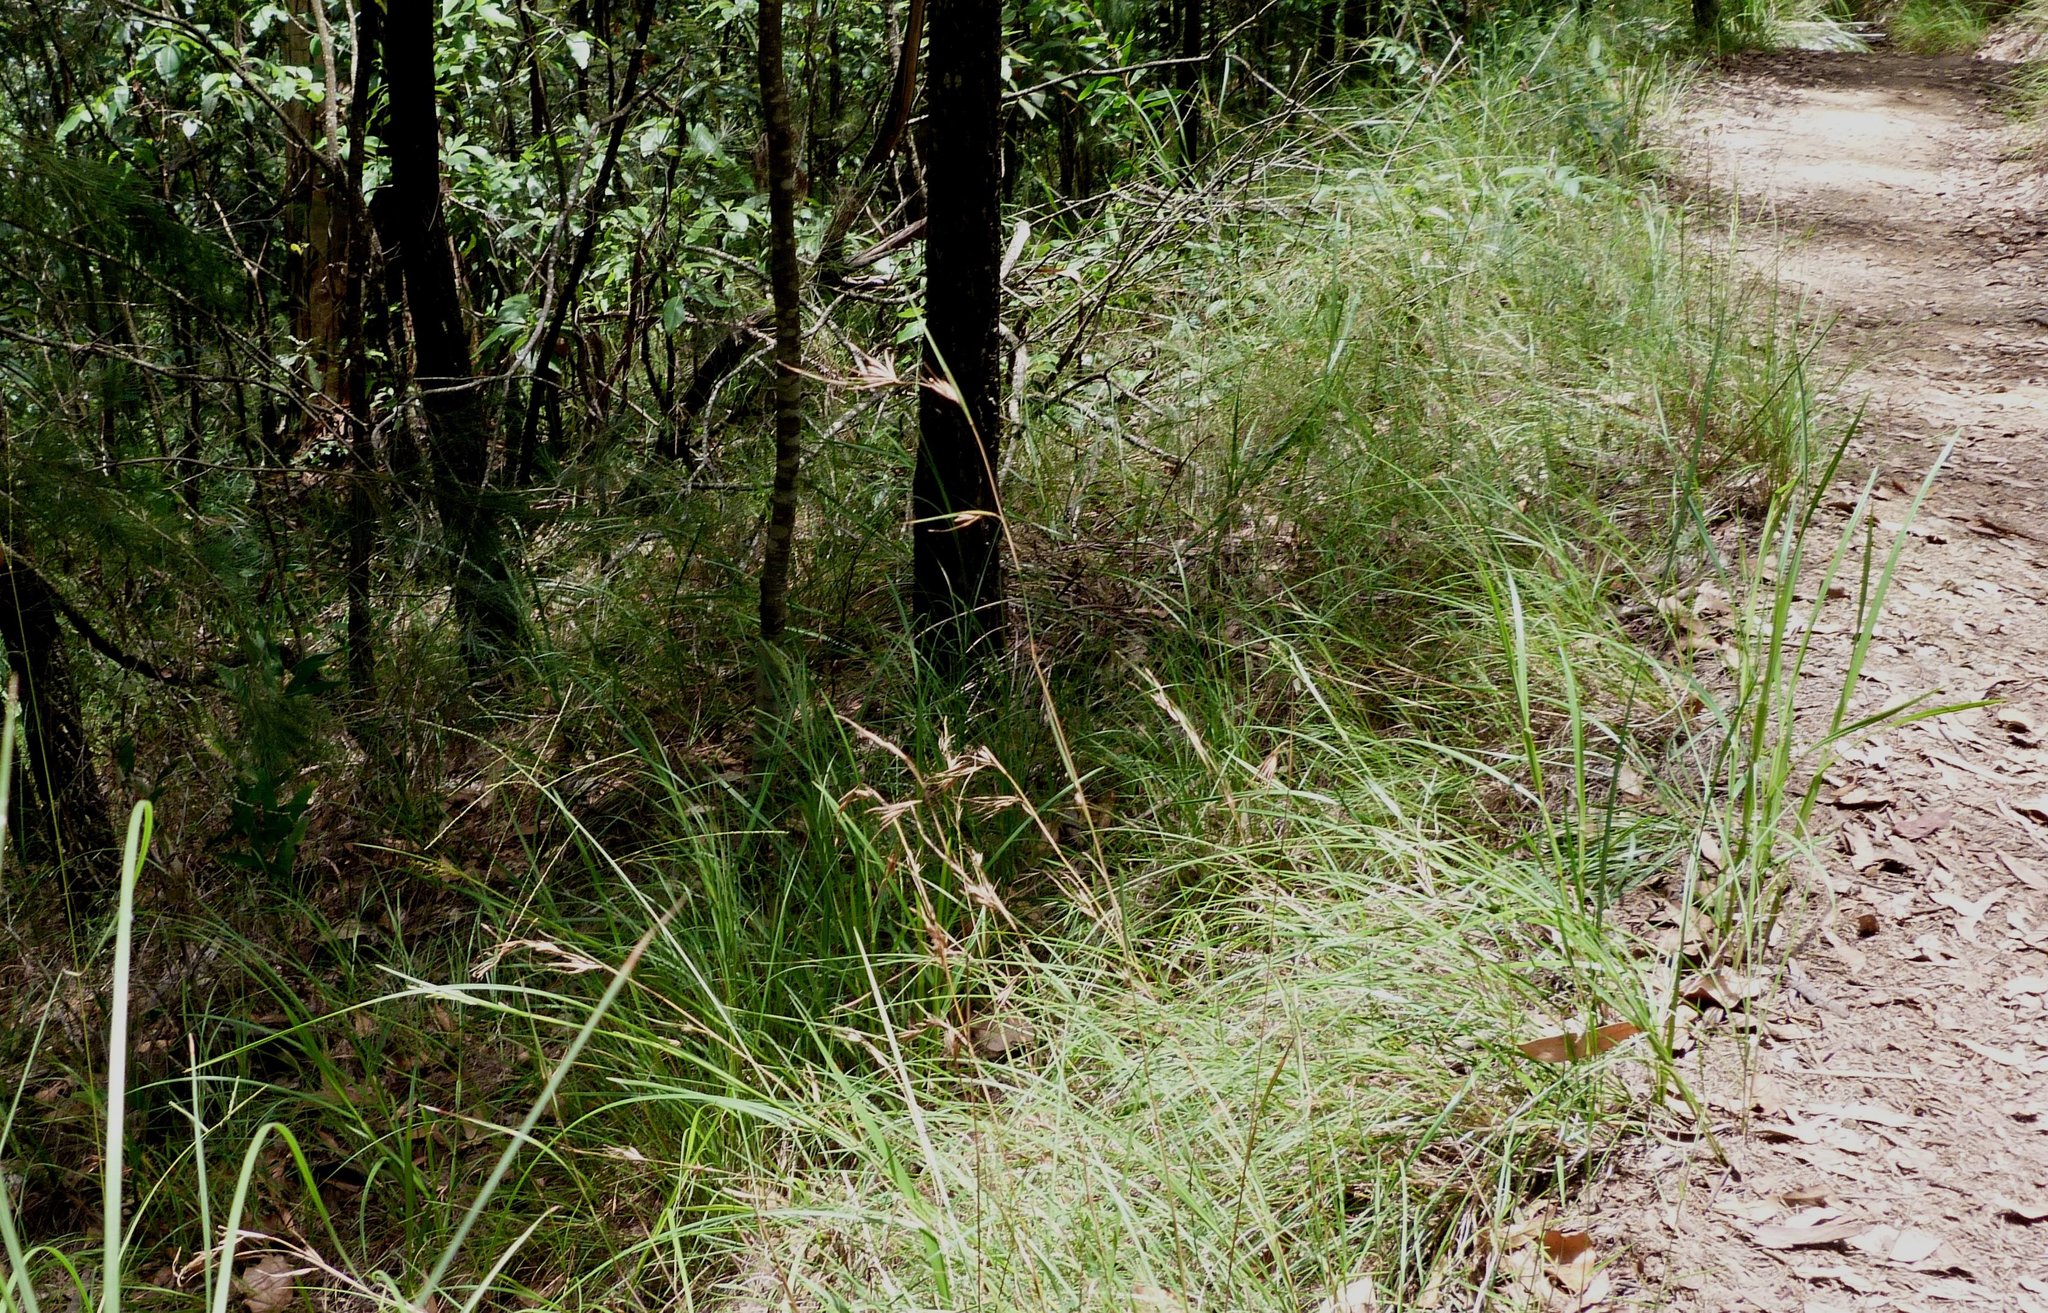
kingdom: Plantae
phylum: Tracheophyta
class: Liliopsida
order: Poales
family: Poaceae
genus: Themeda
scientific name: Themeda triandra
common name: Kangaroo grass
